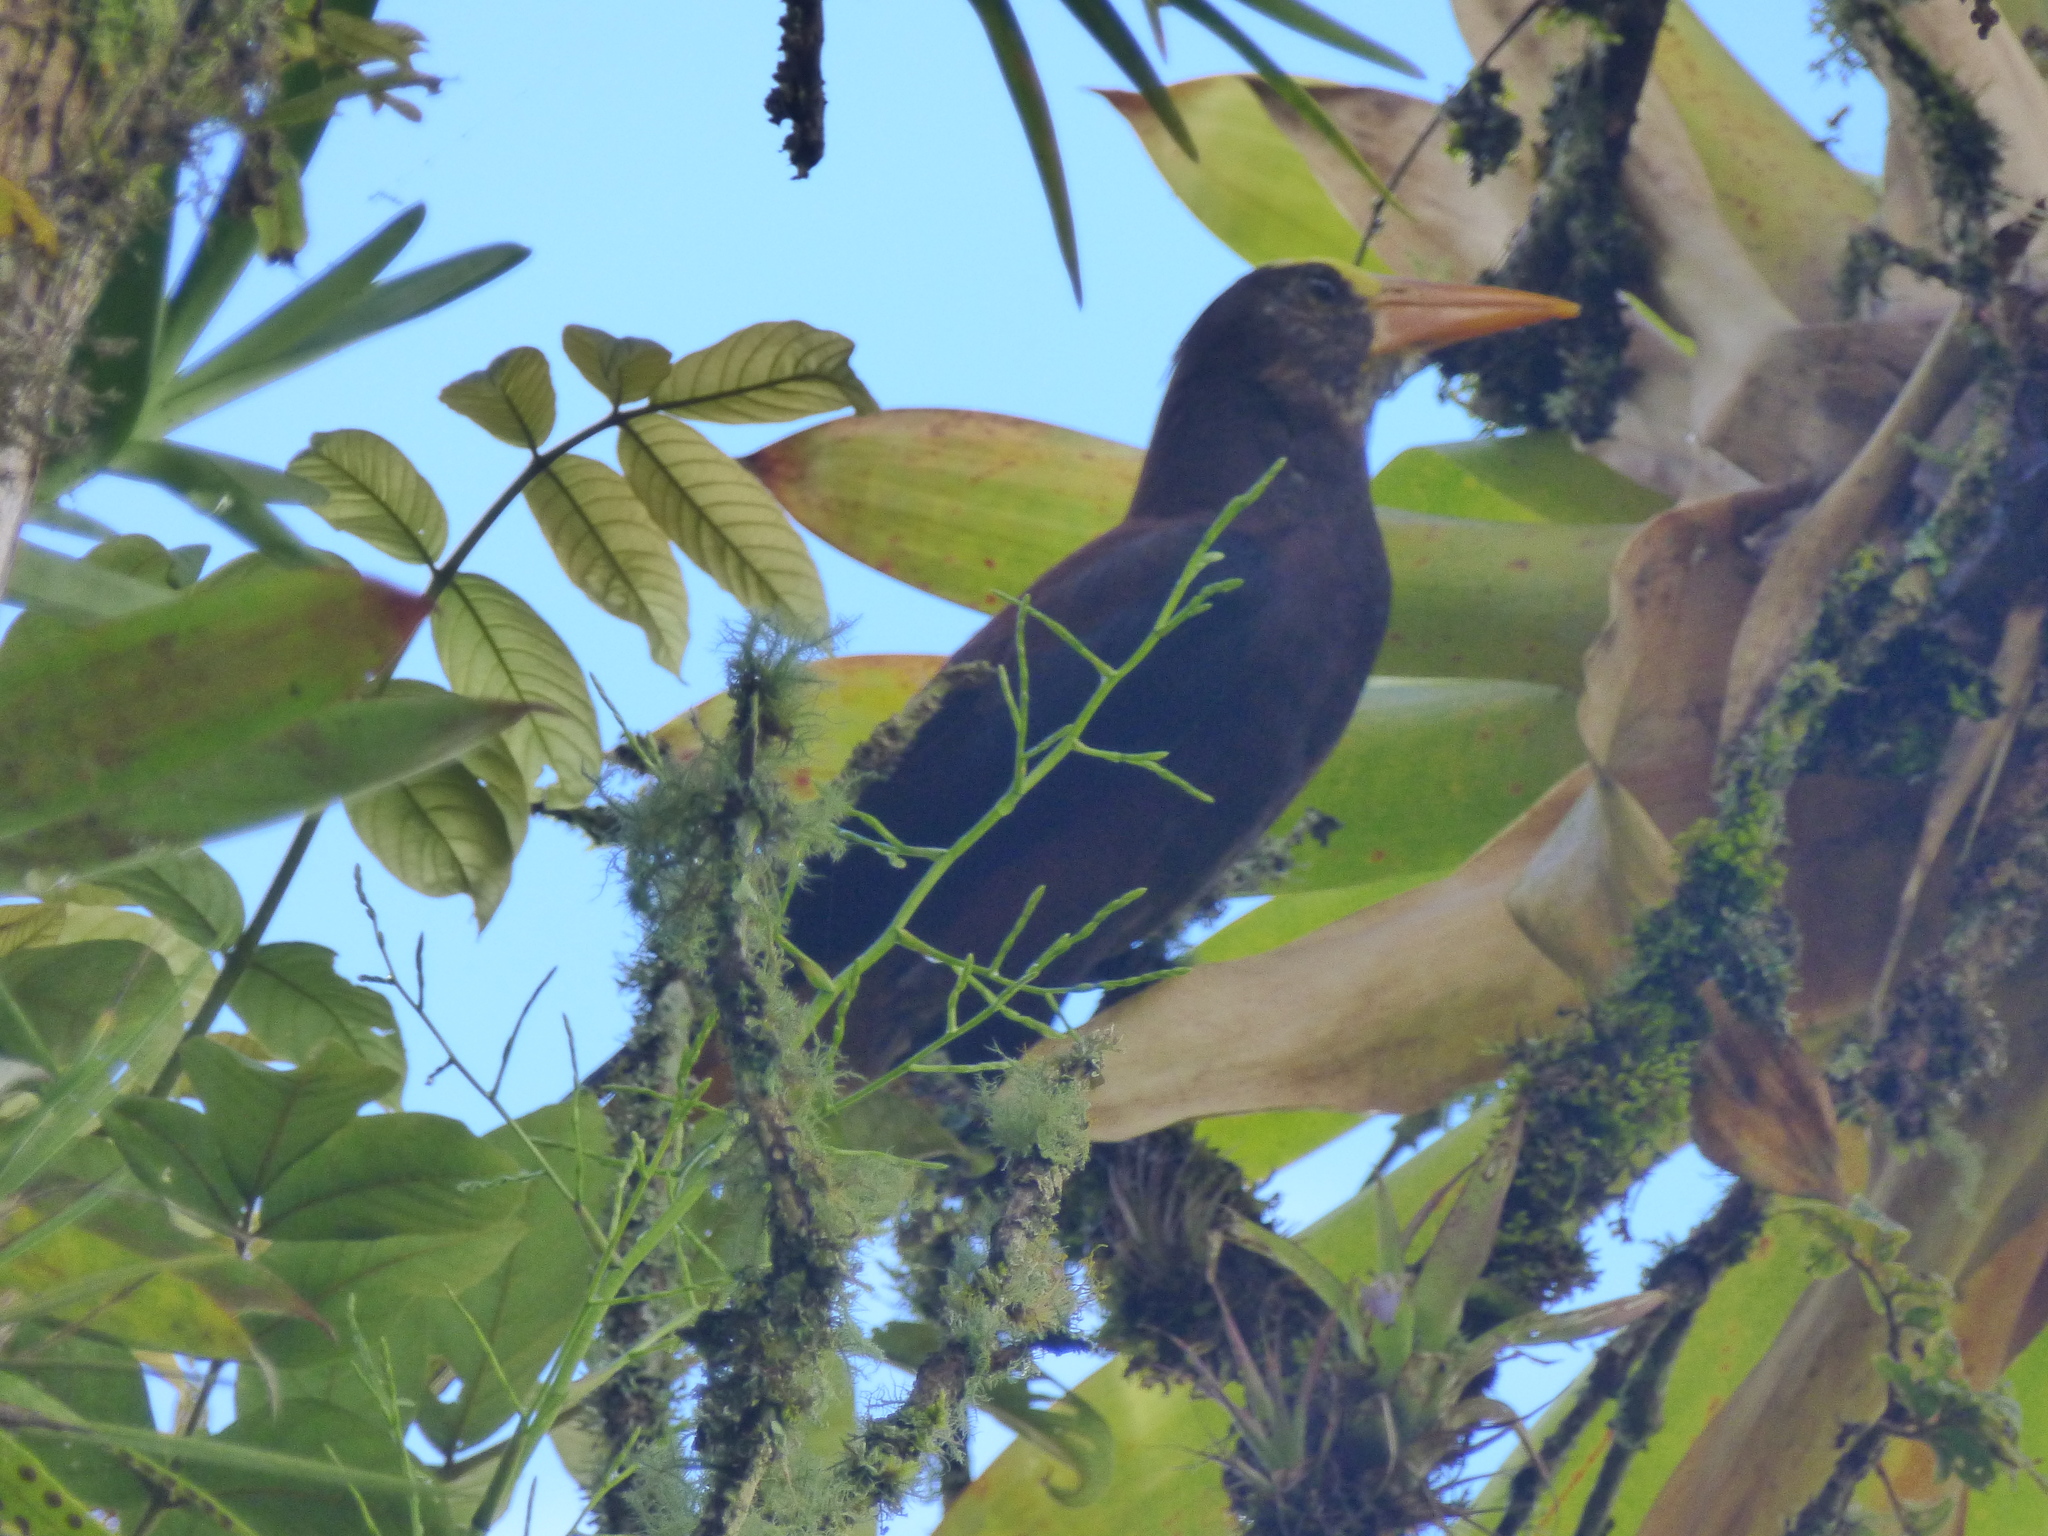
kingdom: Animalia
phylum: Chordata
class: Aves
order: Passeriformes
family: Icteridae
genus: Psarocolius
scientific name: Psarocolius angustifrons
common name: Russet-backed oropendola
